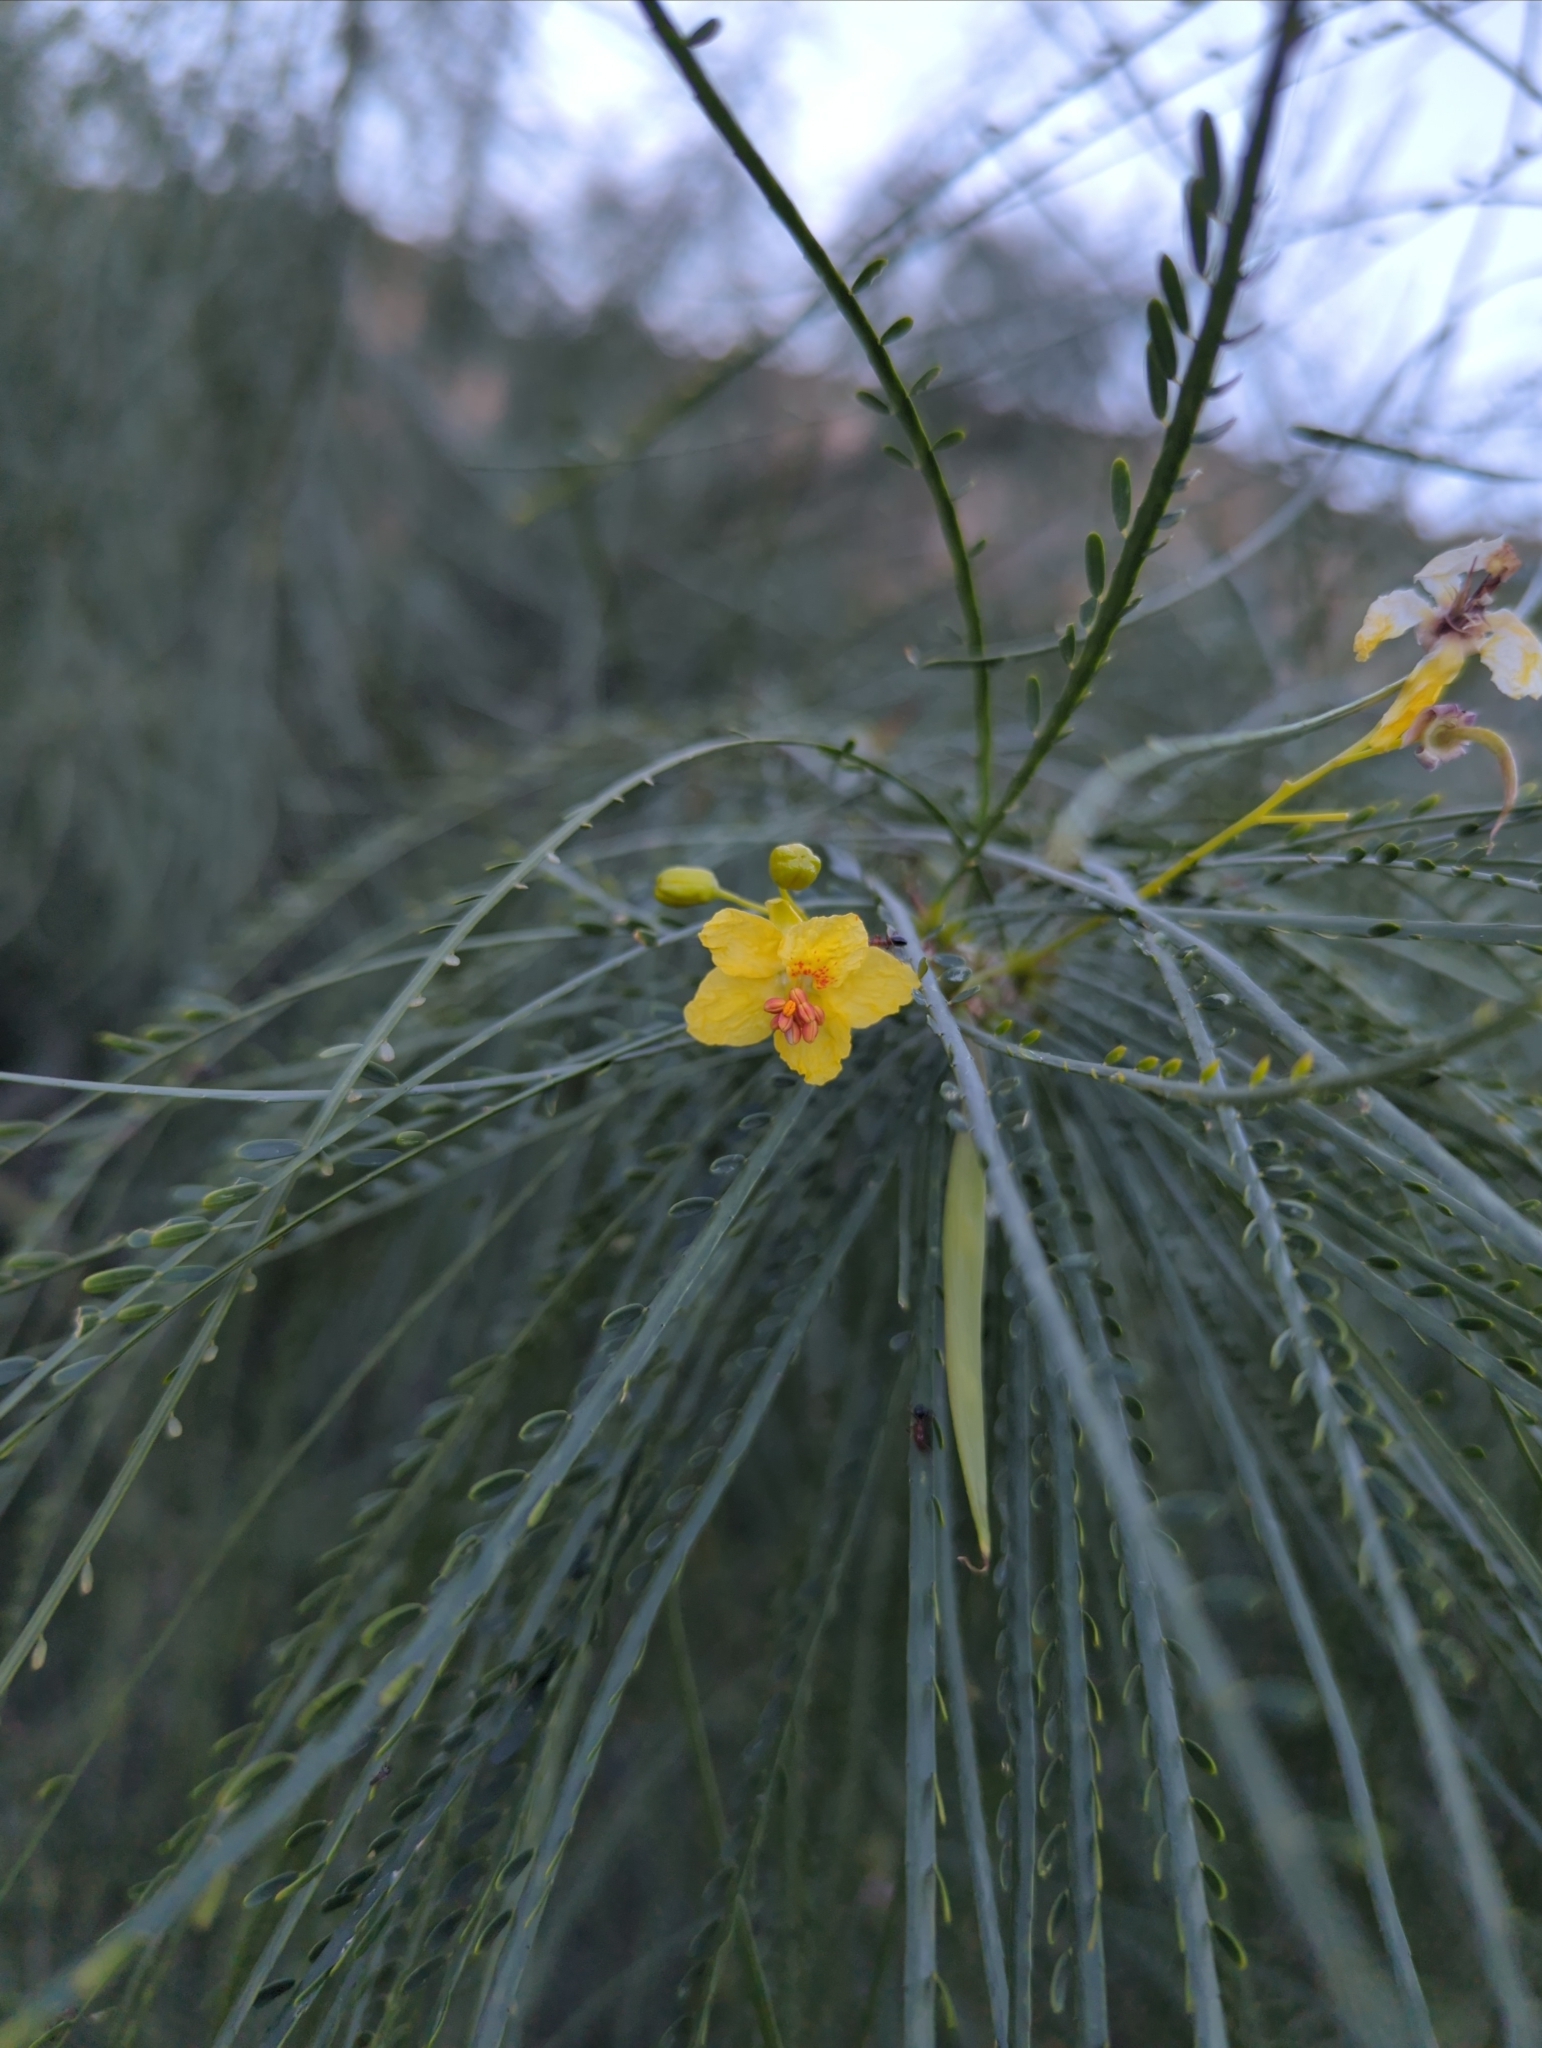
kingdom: Plantae
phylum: Tracheophyta
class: Magnoliopsida
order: Fabales
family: Fabaceae
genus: Parkinsonia
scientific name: Parkinsonia aculeata
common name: Jerusalem thorn
